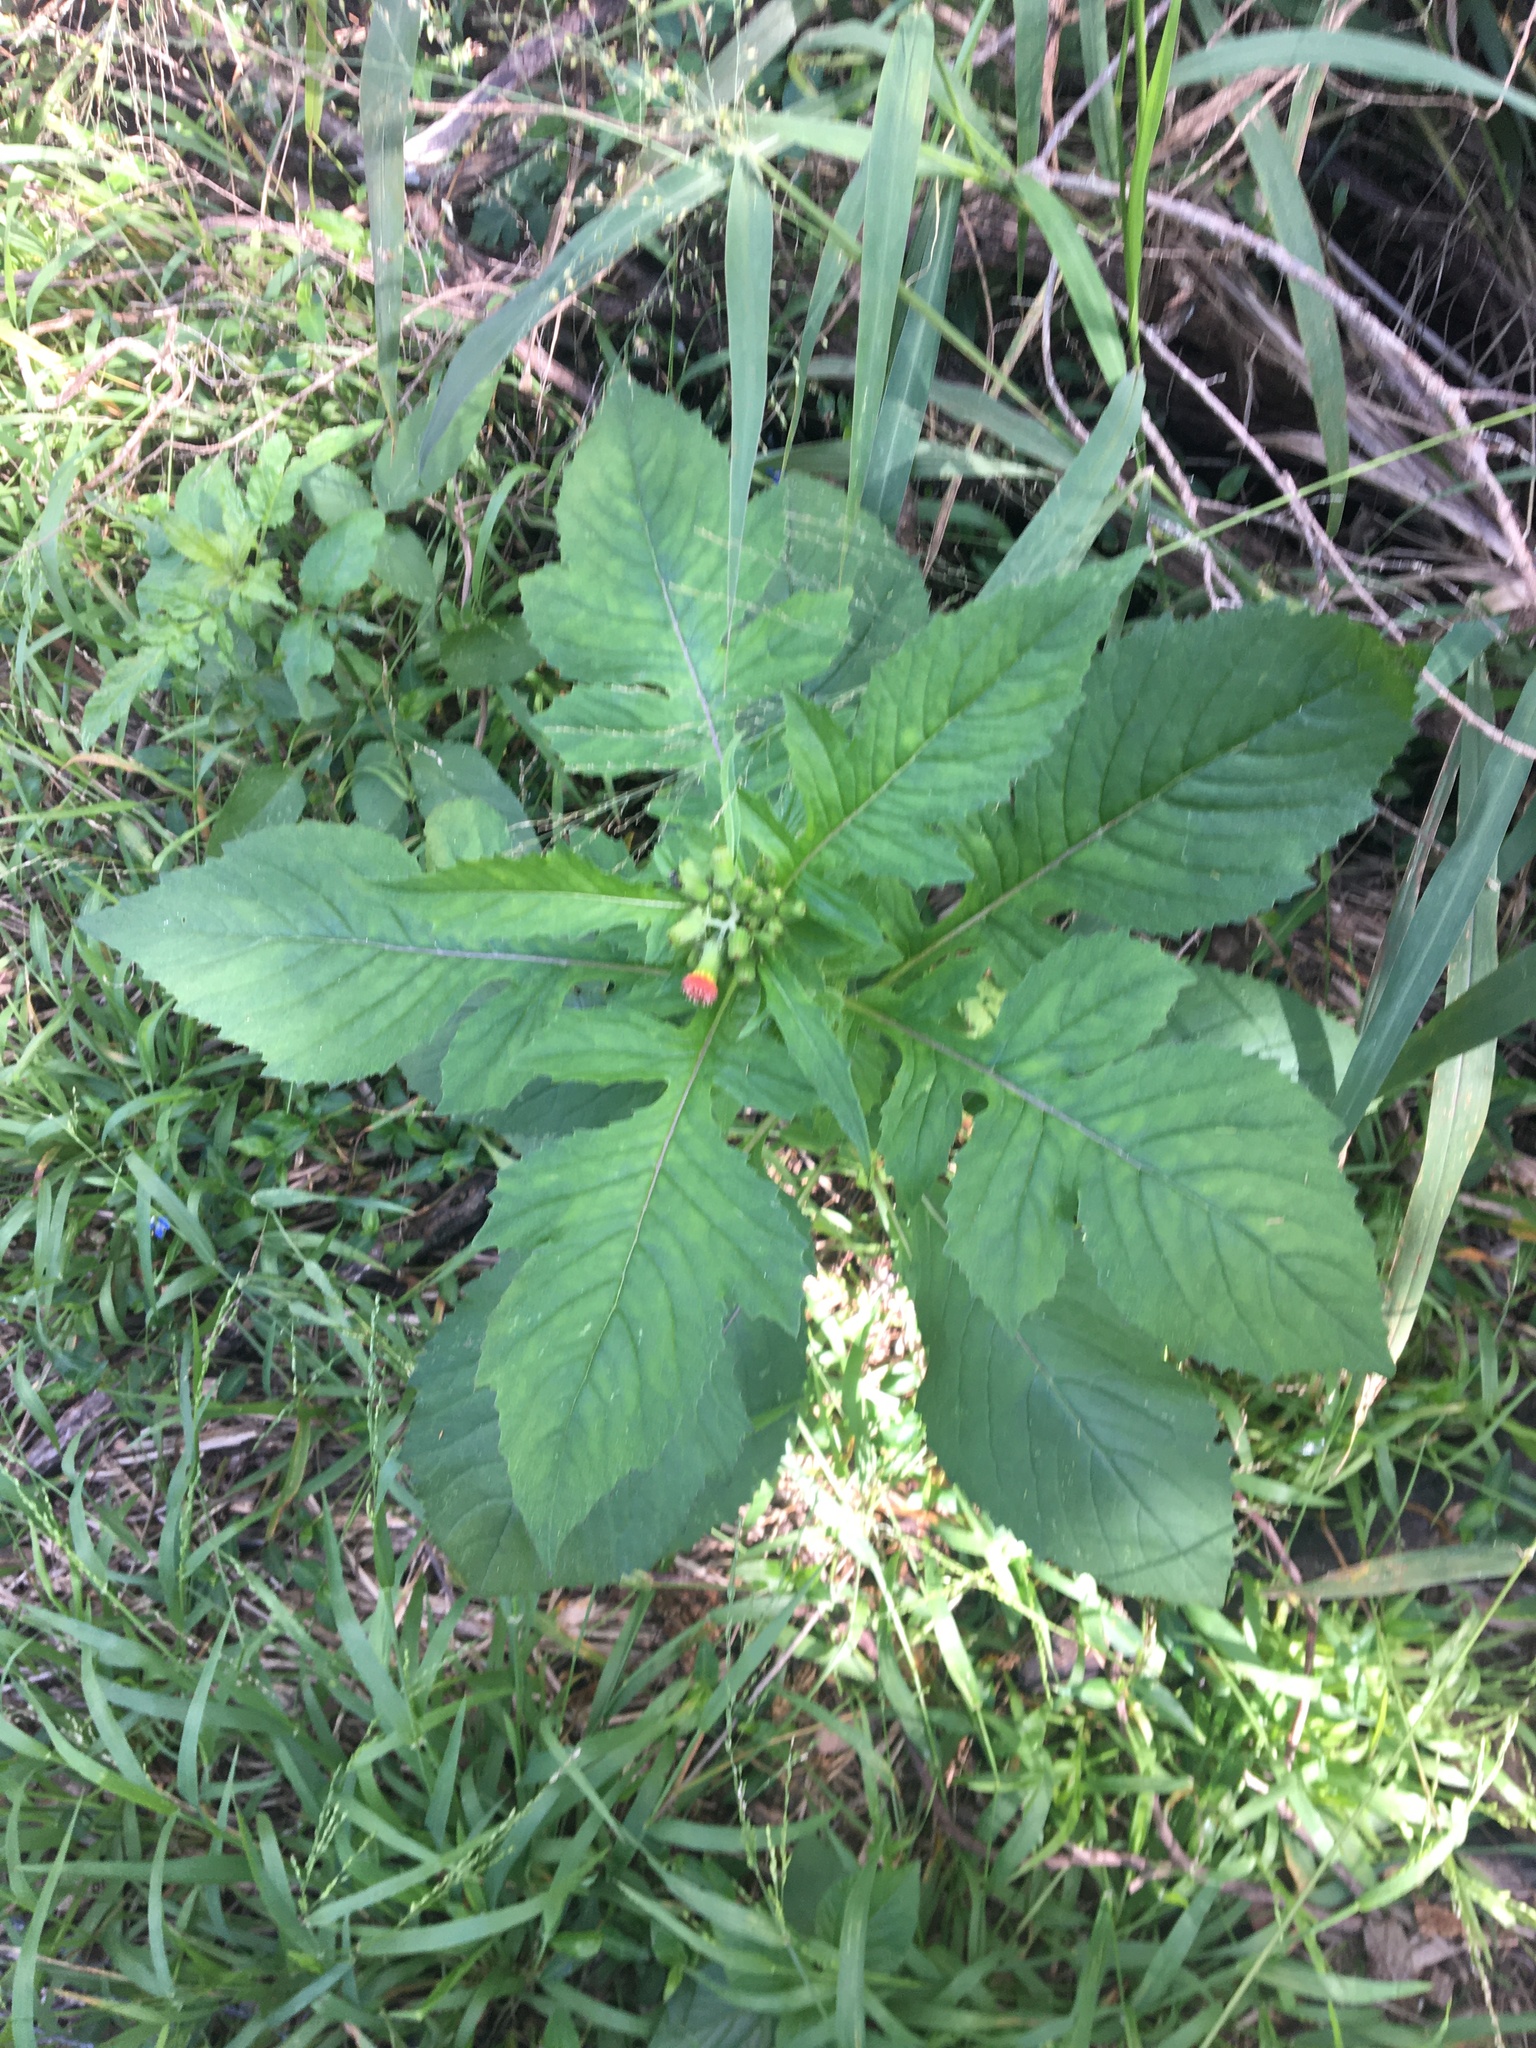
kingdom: Plantae
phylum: Tracheophyta
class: Magnoliopsida
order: Asterales
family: Asteraceae
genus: Crassocephalum
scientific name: Crassocephalum crepidioides
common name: Redflower ragleaf
